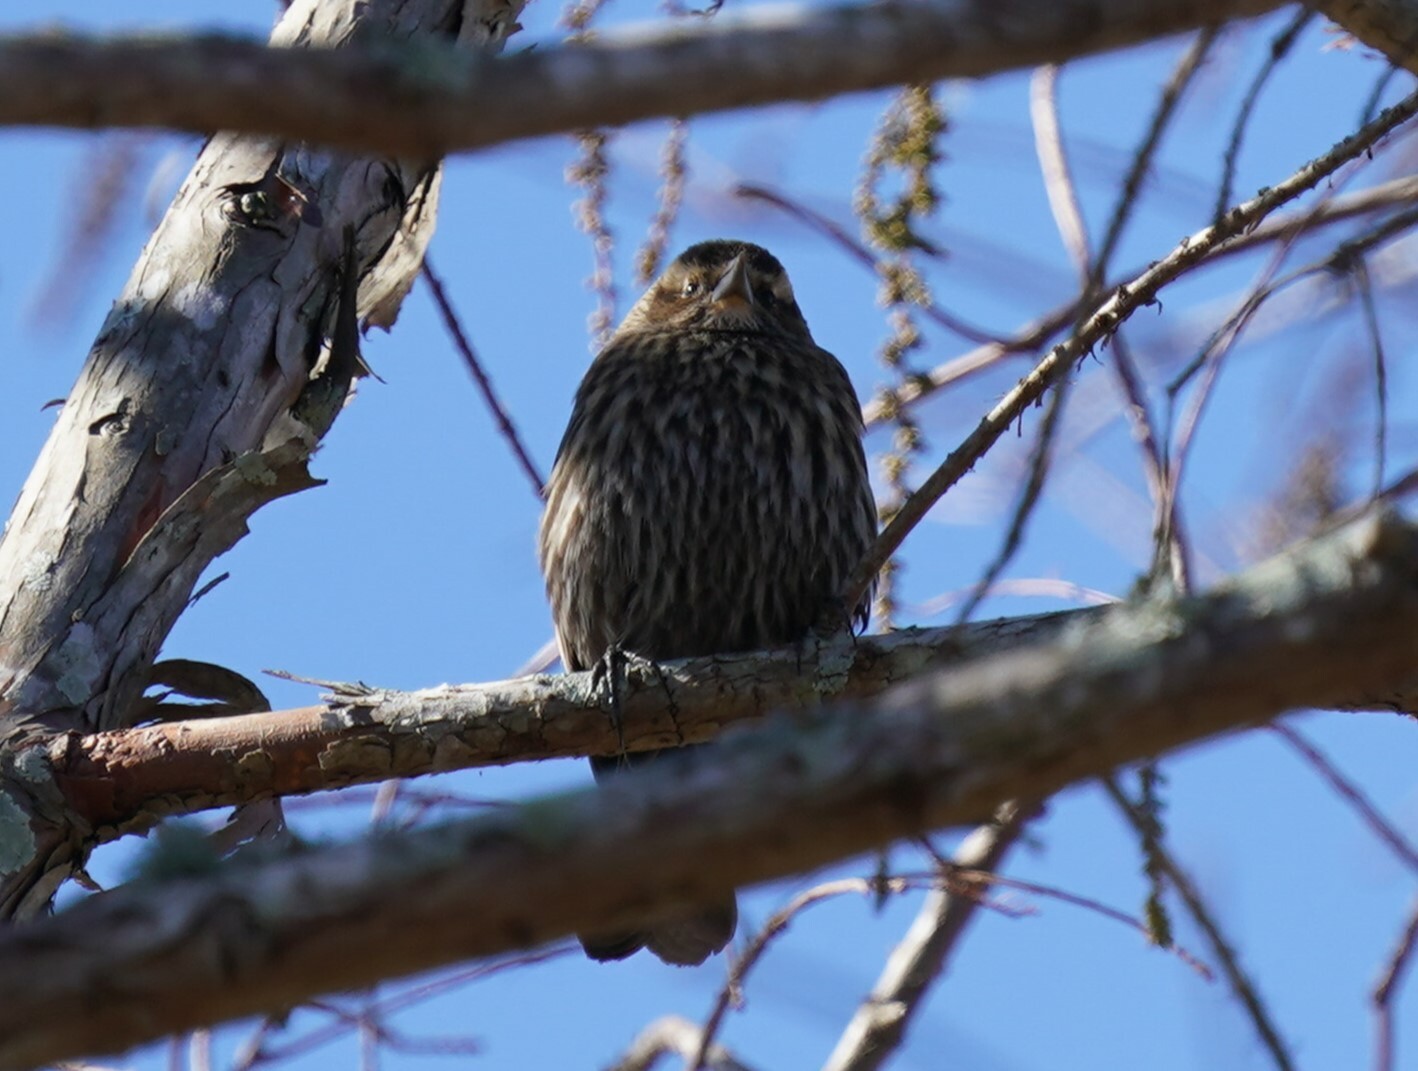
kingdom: Animalia
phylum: Chordata
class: Aves
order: Passeriformes
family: Icteridae
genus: Agelaius
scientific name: Agelaius phoeniceus
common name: Red-winged blackbird
